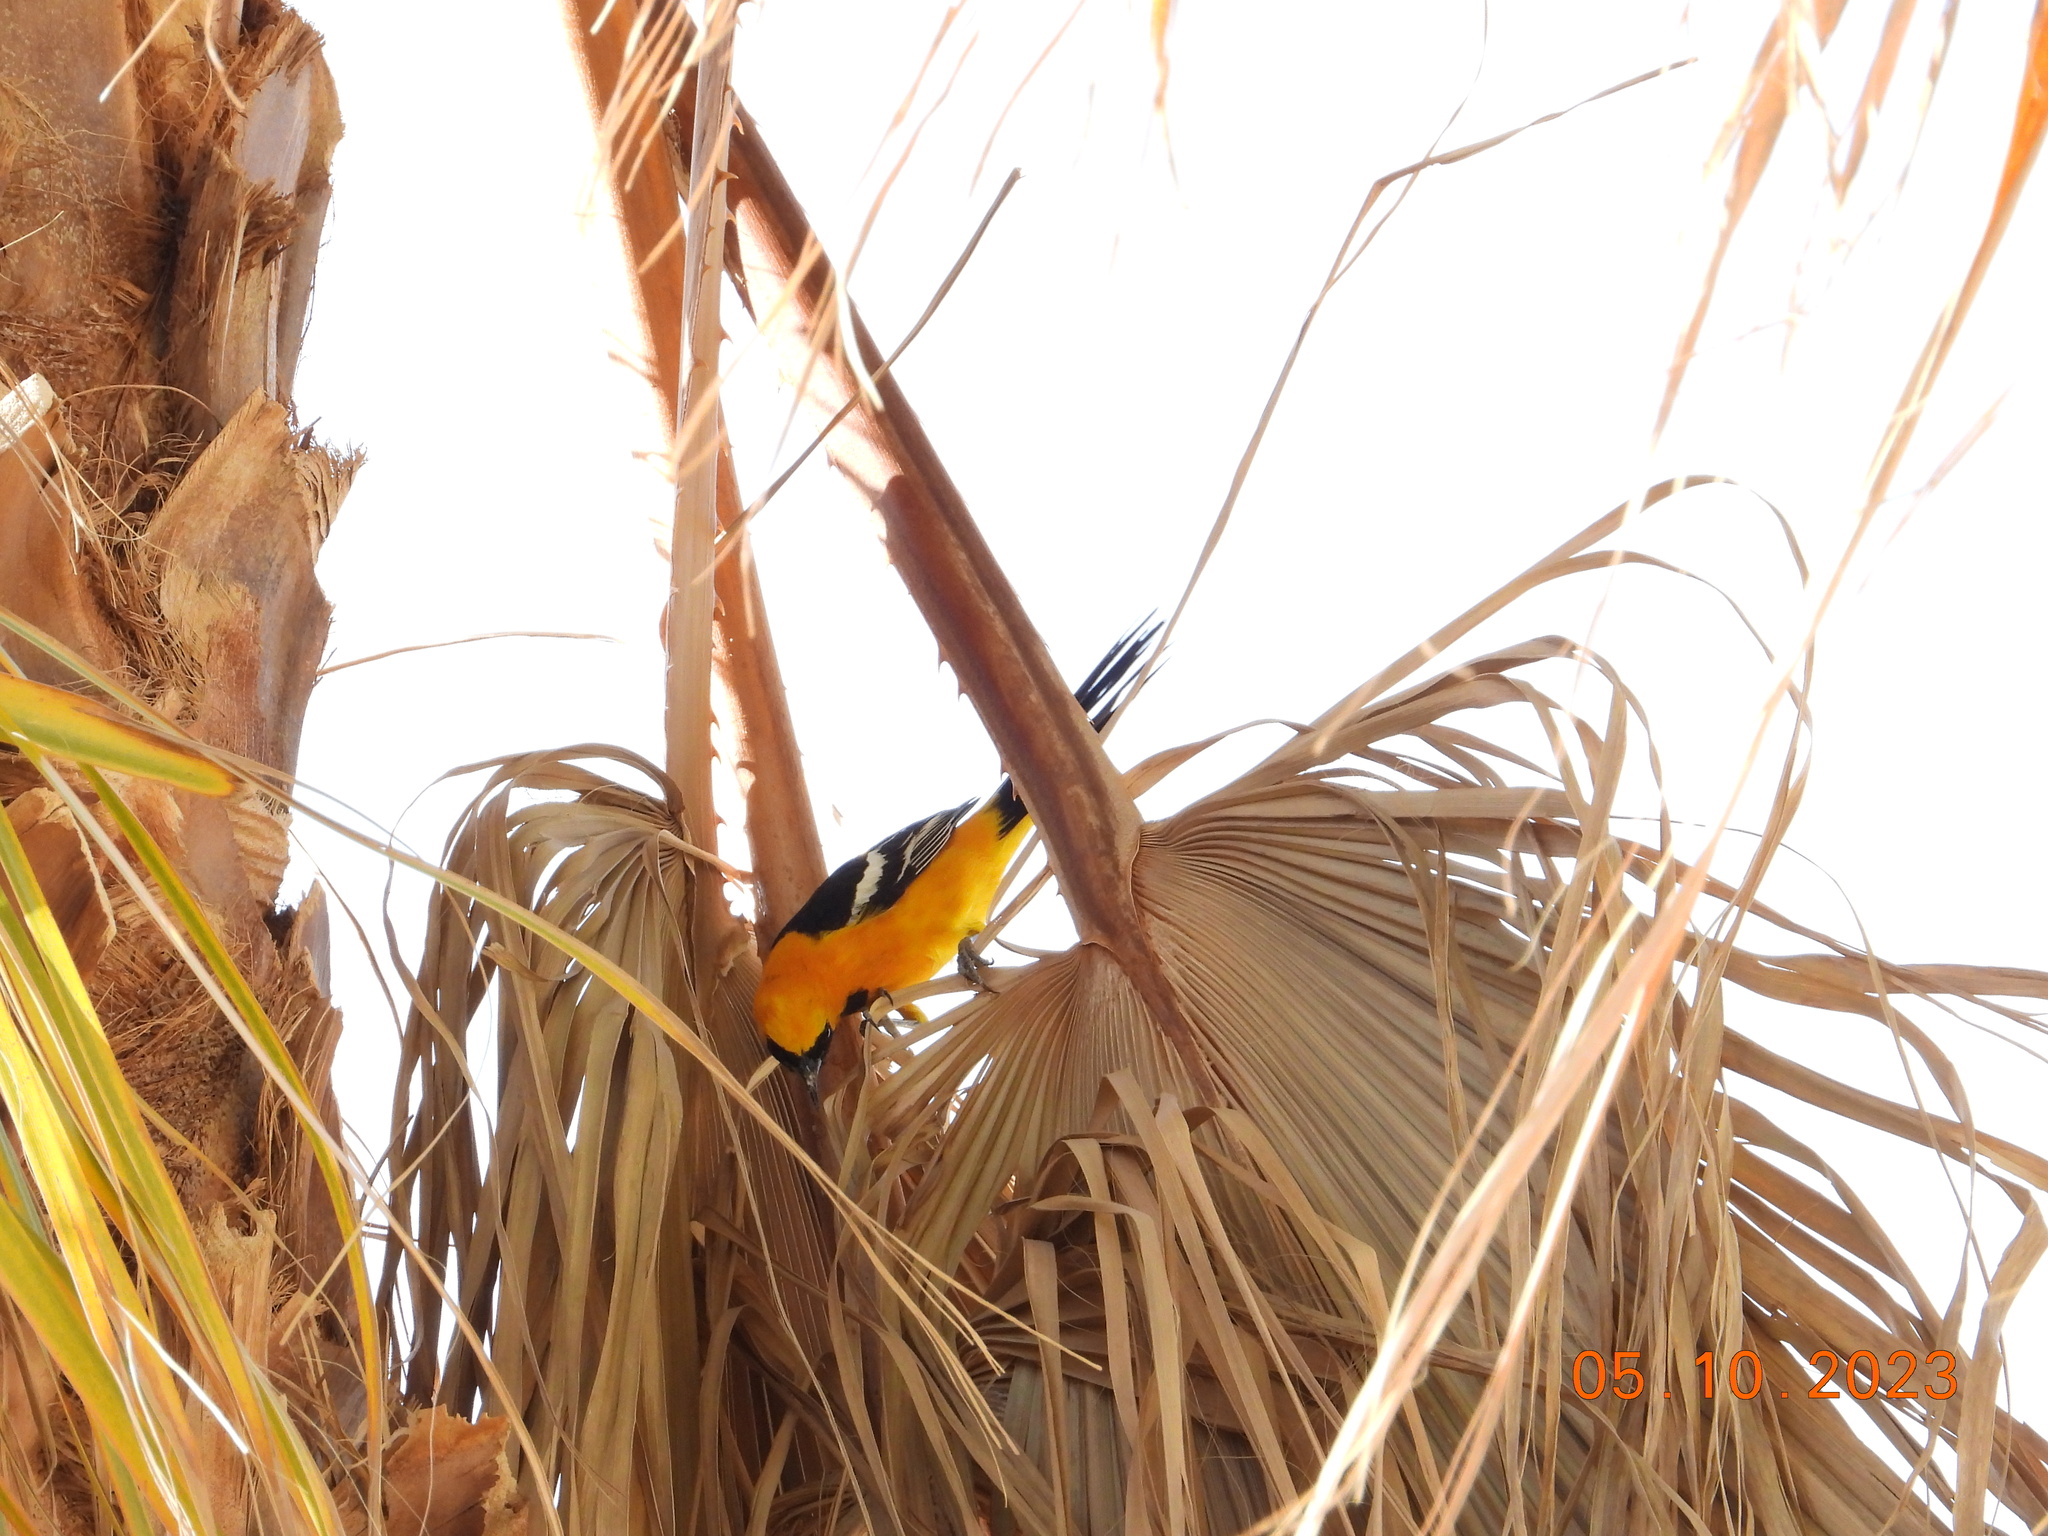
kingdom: Animalia
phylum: Chordata
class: Aves
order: Passeriformes
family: Icteridae
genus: Icterus
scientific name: Icterus cucullatus
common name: Hooded oriole
